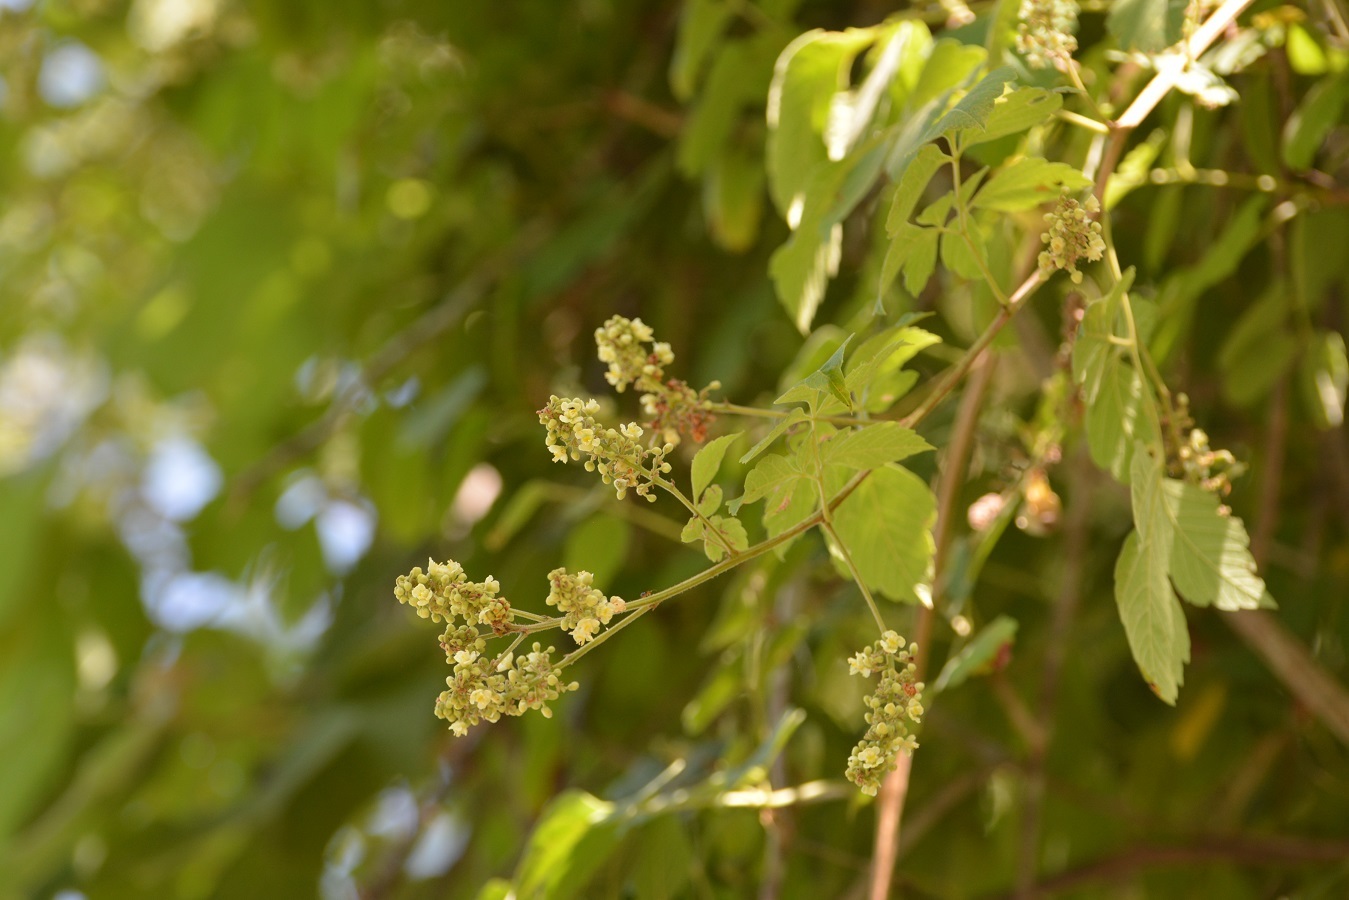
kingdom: Plantae
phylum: Tracheophyta
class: Magnoliopsida
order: Sapindales
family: Sapindaceae
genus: Serjania
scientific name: Serjania cardiospermoides
